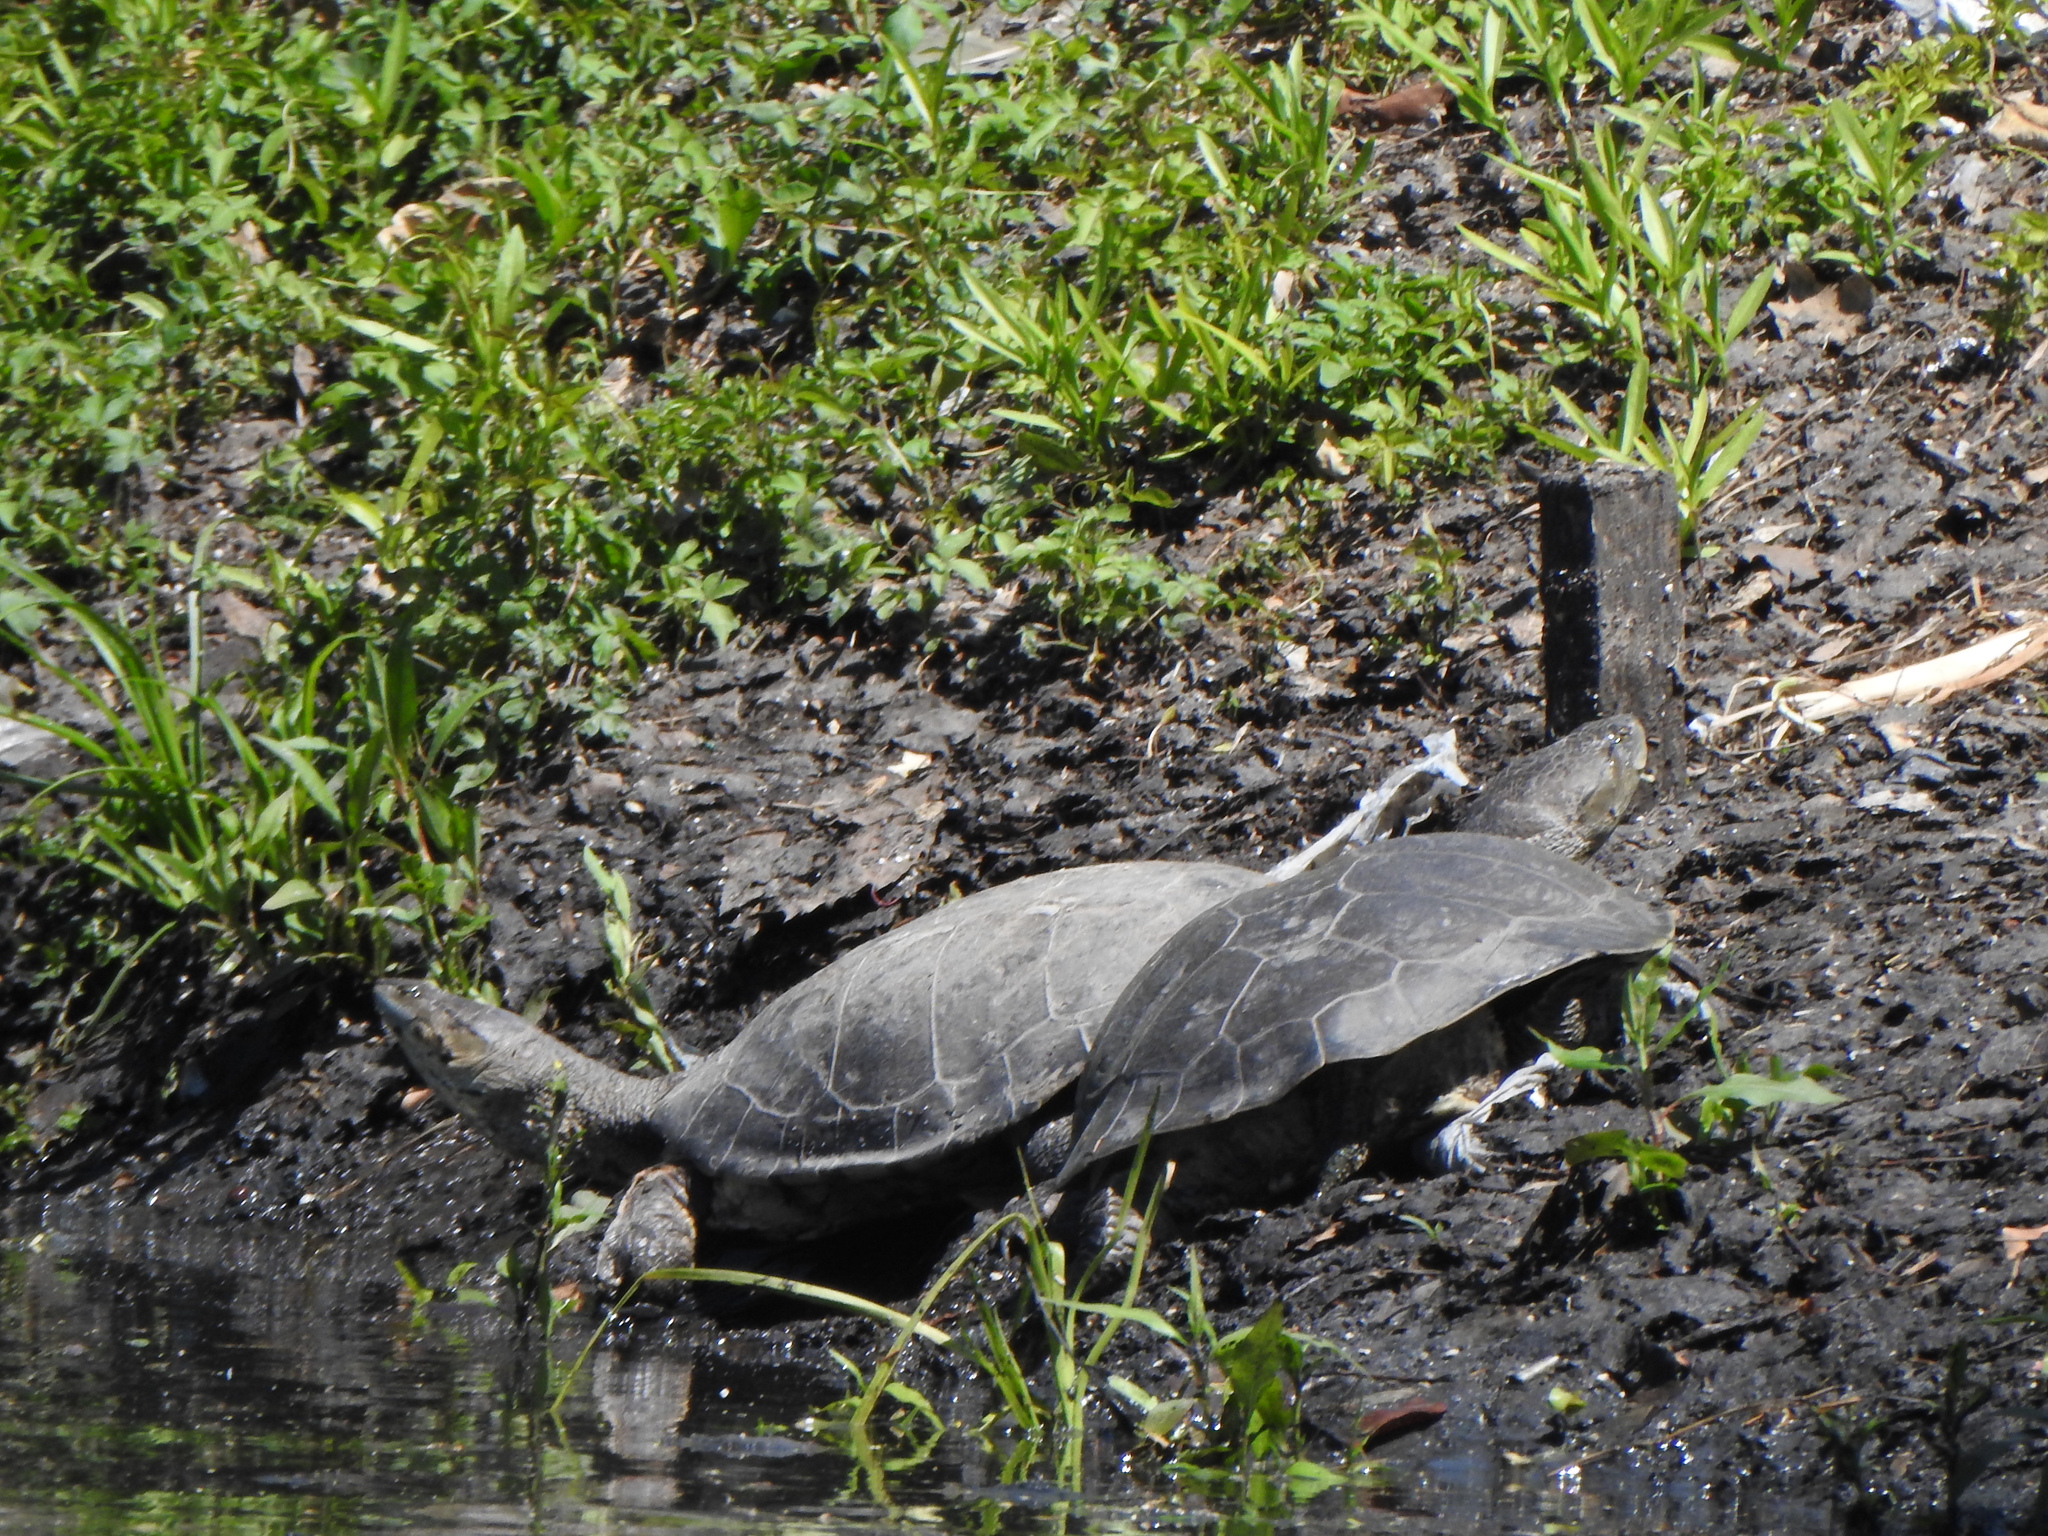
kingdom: Animalia
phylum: Chordata
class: Testudines
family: Chelidae
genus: Phrynops
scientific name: Phrynops hilarii
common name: Side-necked turtle of saint hillaire
